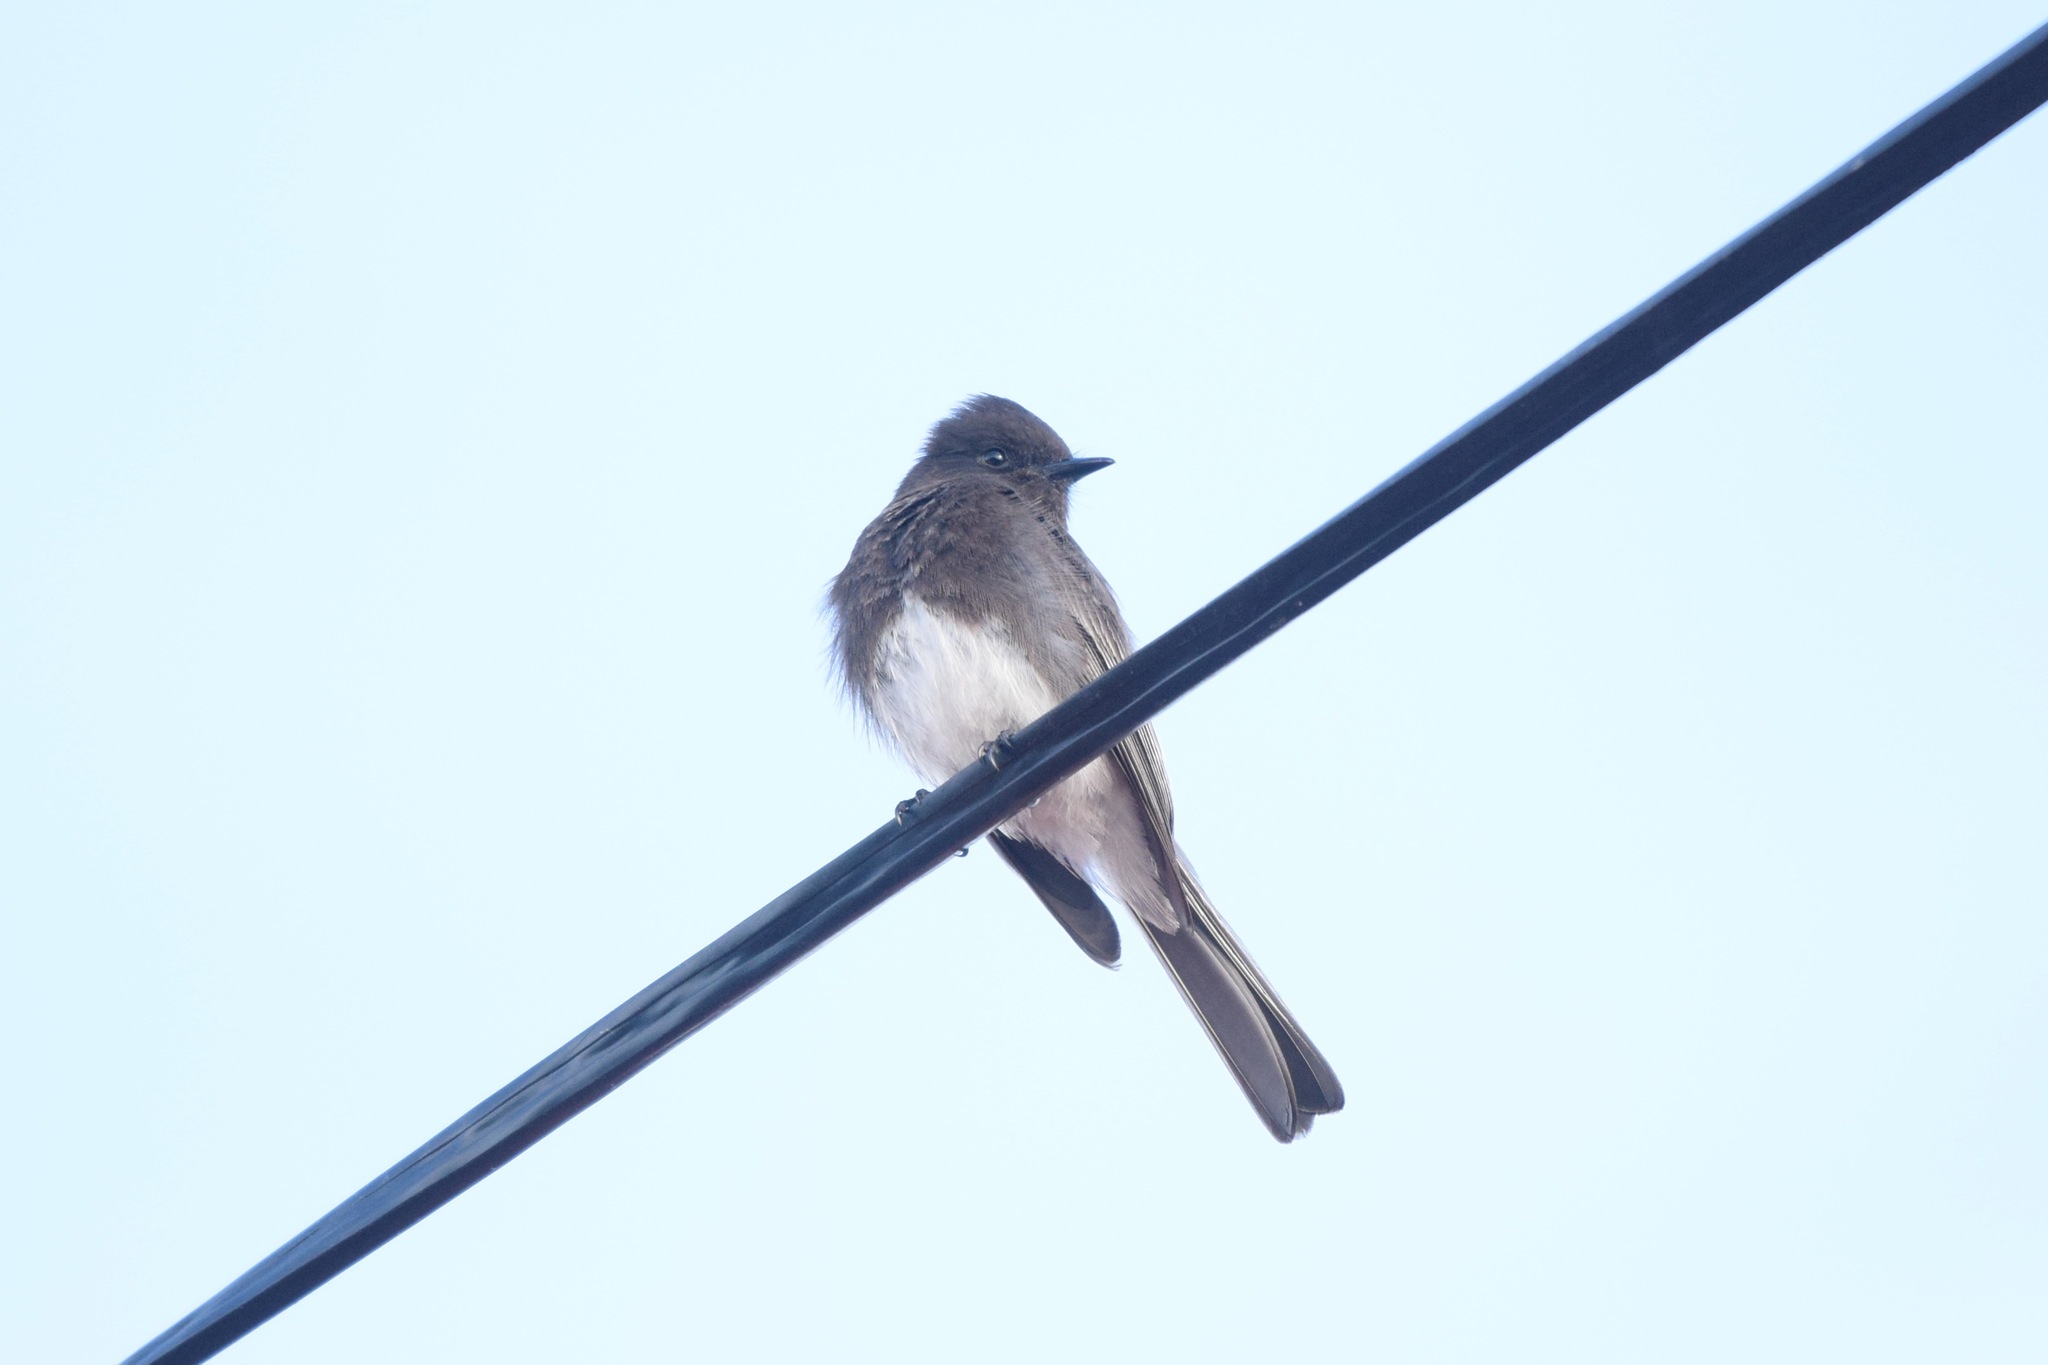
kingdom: Animalia
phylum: Chordata
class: Aves
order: Passeriformes
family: Tyrannidae
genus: Sayornis
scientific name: Sayornis nigricans
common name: Black phoebe
